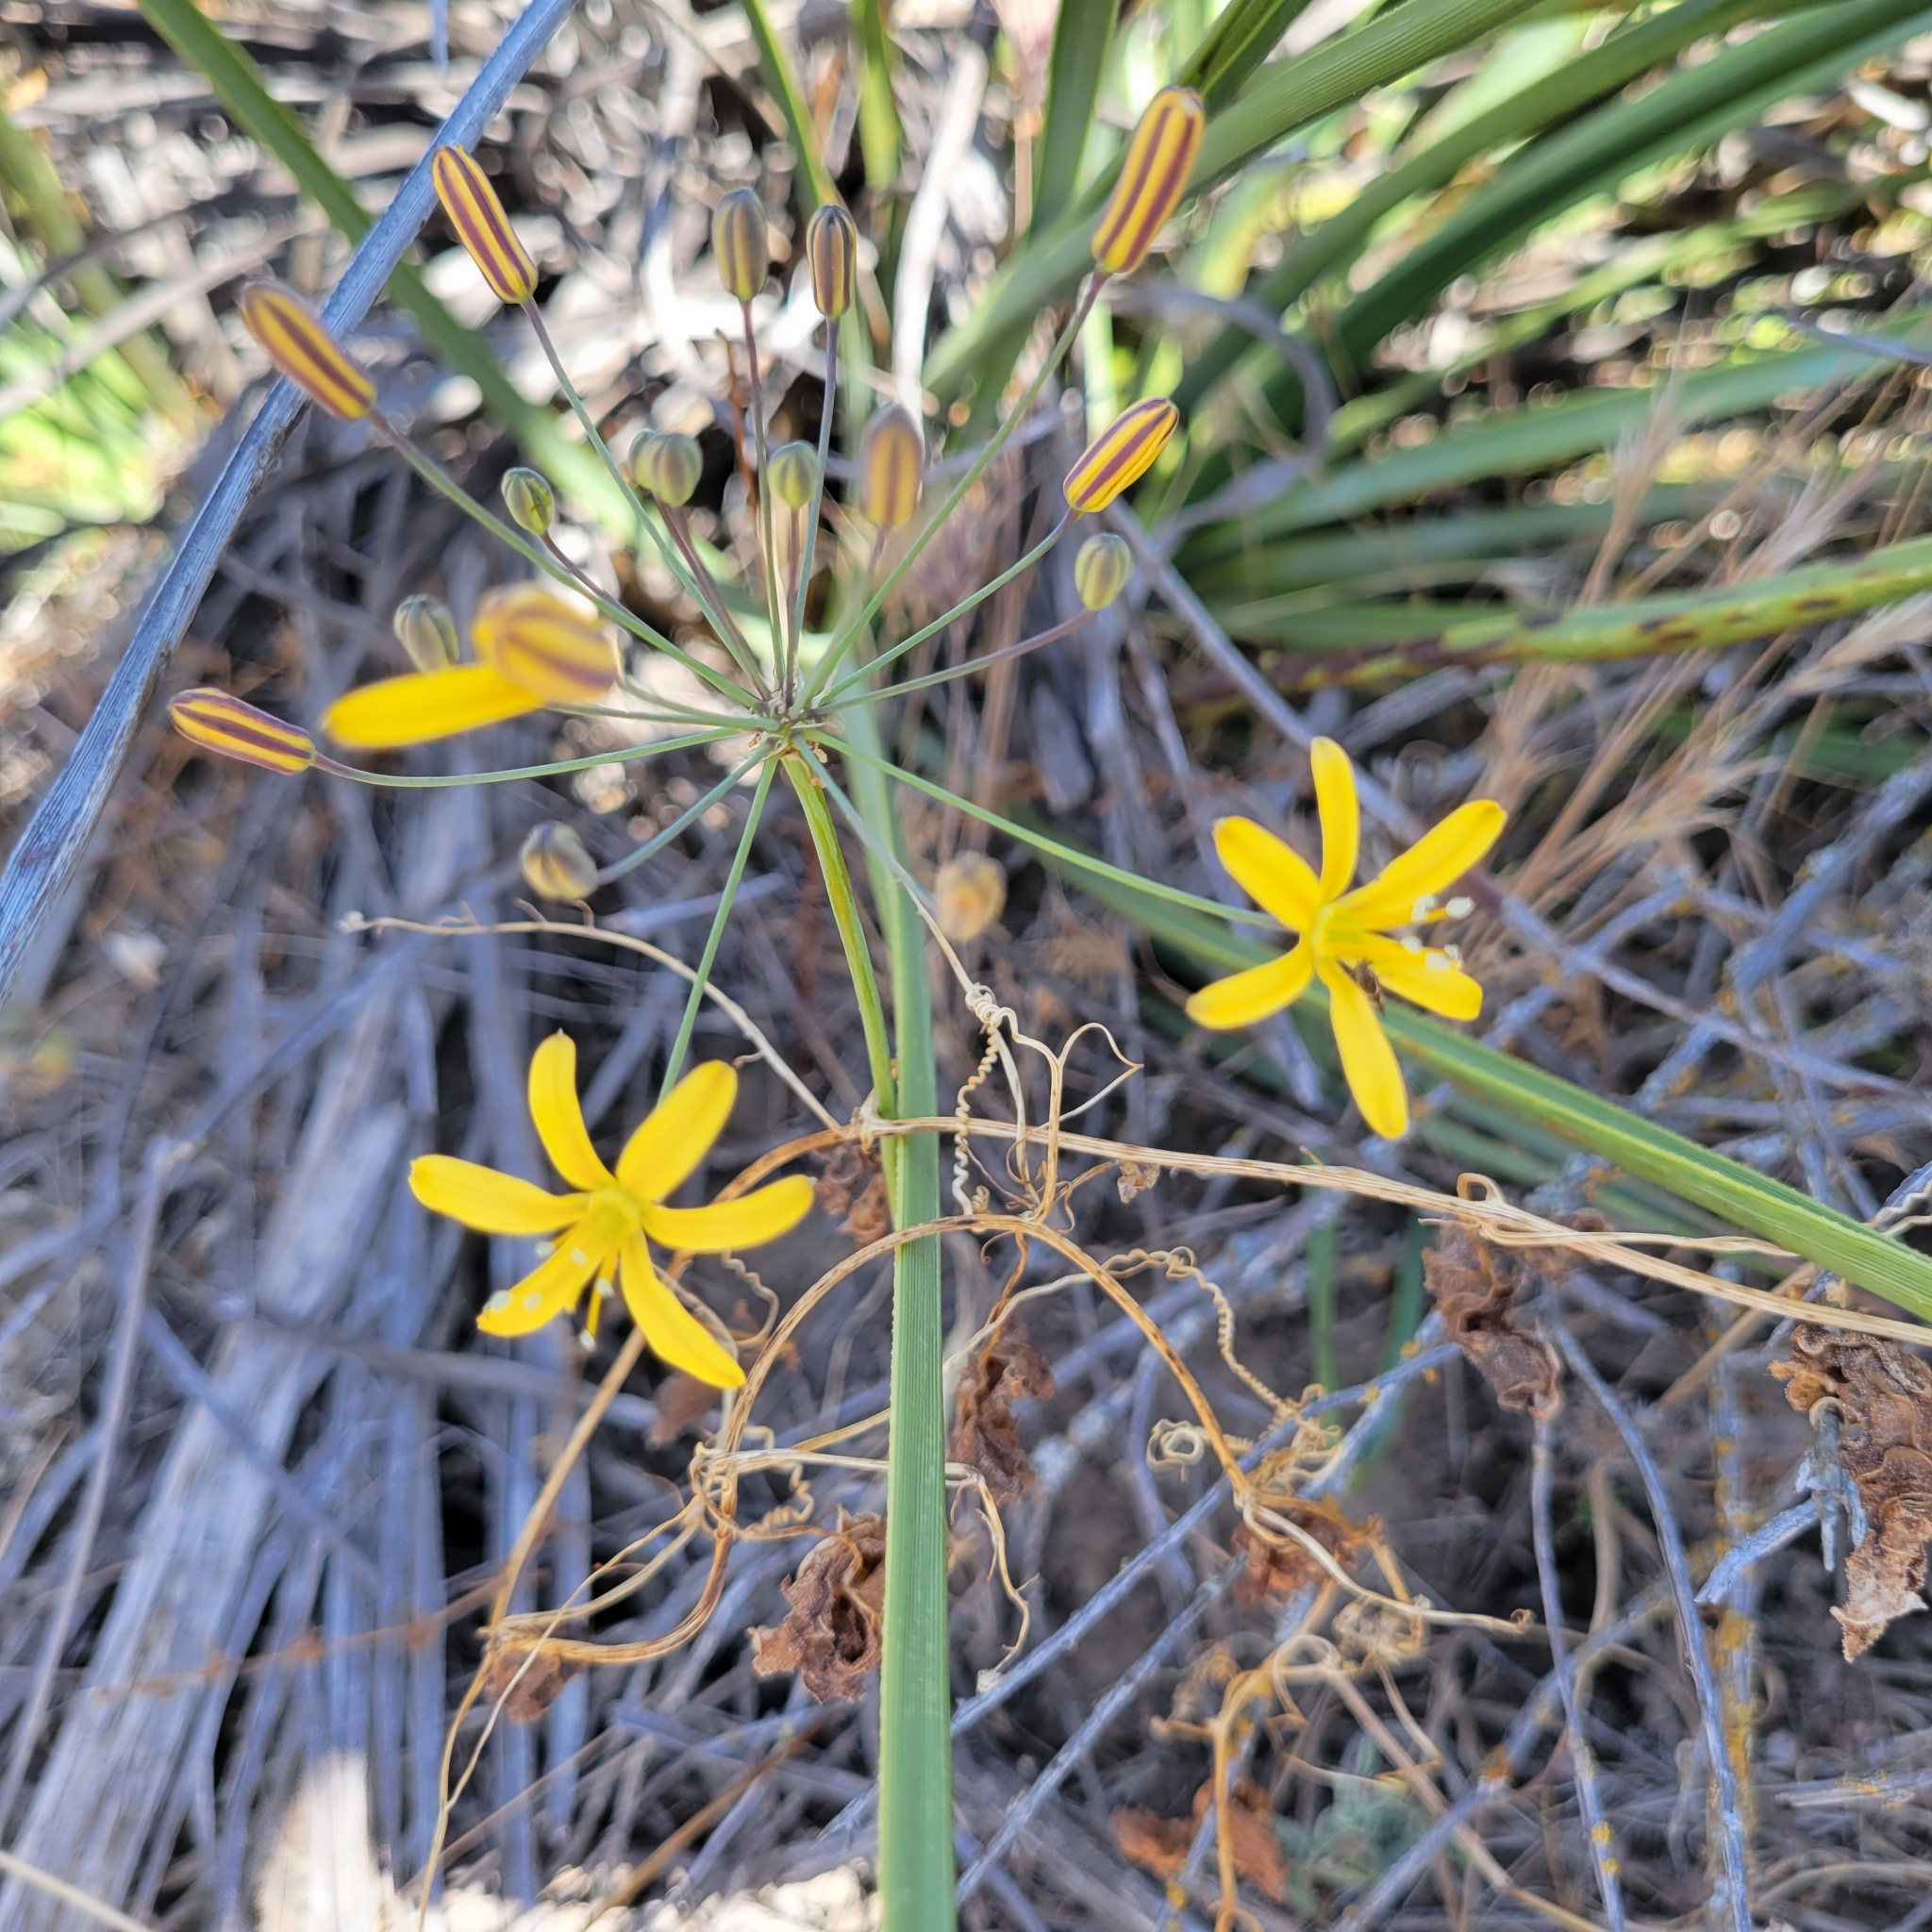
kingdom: Plantae
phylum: Tracheophyta
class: Liliopsida
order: Asparagales
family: Asparagaceae
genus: Bloomeria
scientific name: Bloomeria crocea
